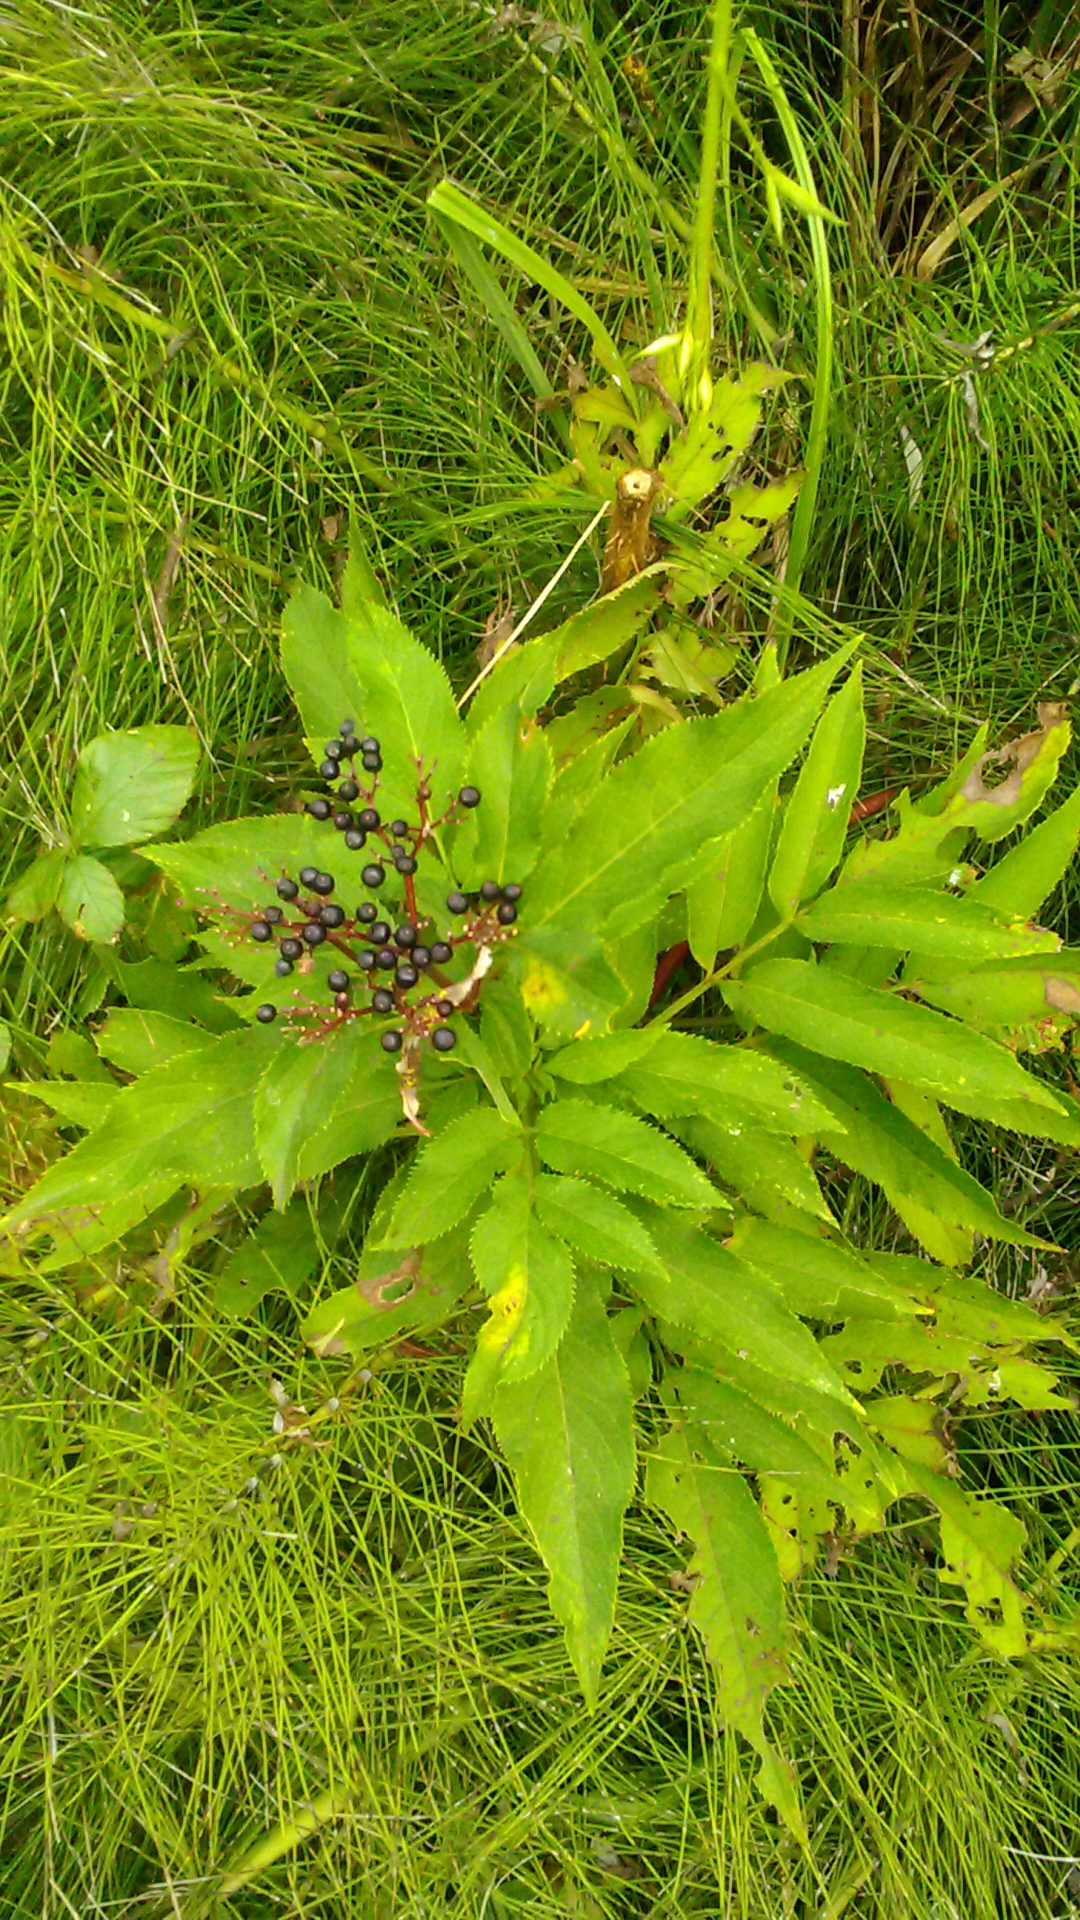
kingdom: Plantae
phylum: Tracheophyta
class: Magnoliopsida
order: Dipsacales
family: Viburnaceae
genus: Sambucus
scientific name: Sambucus ebulus
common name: Dwarf elder
